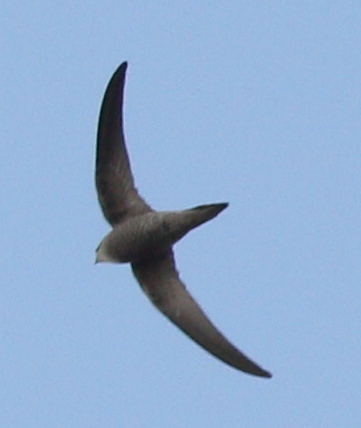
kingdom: Animalia
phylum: Chordata
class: Aves
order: Apodiformes
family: Apodidae
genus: Apus
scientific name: Apus pallidus
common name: Pallid swift
